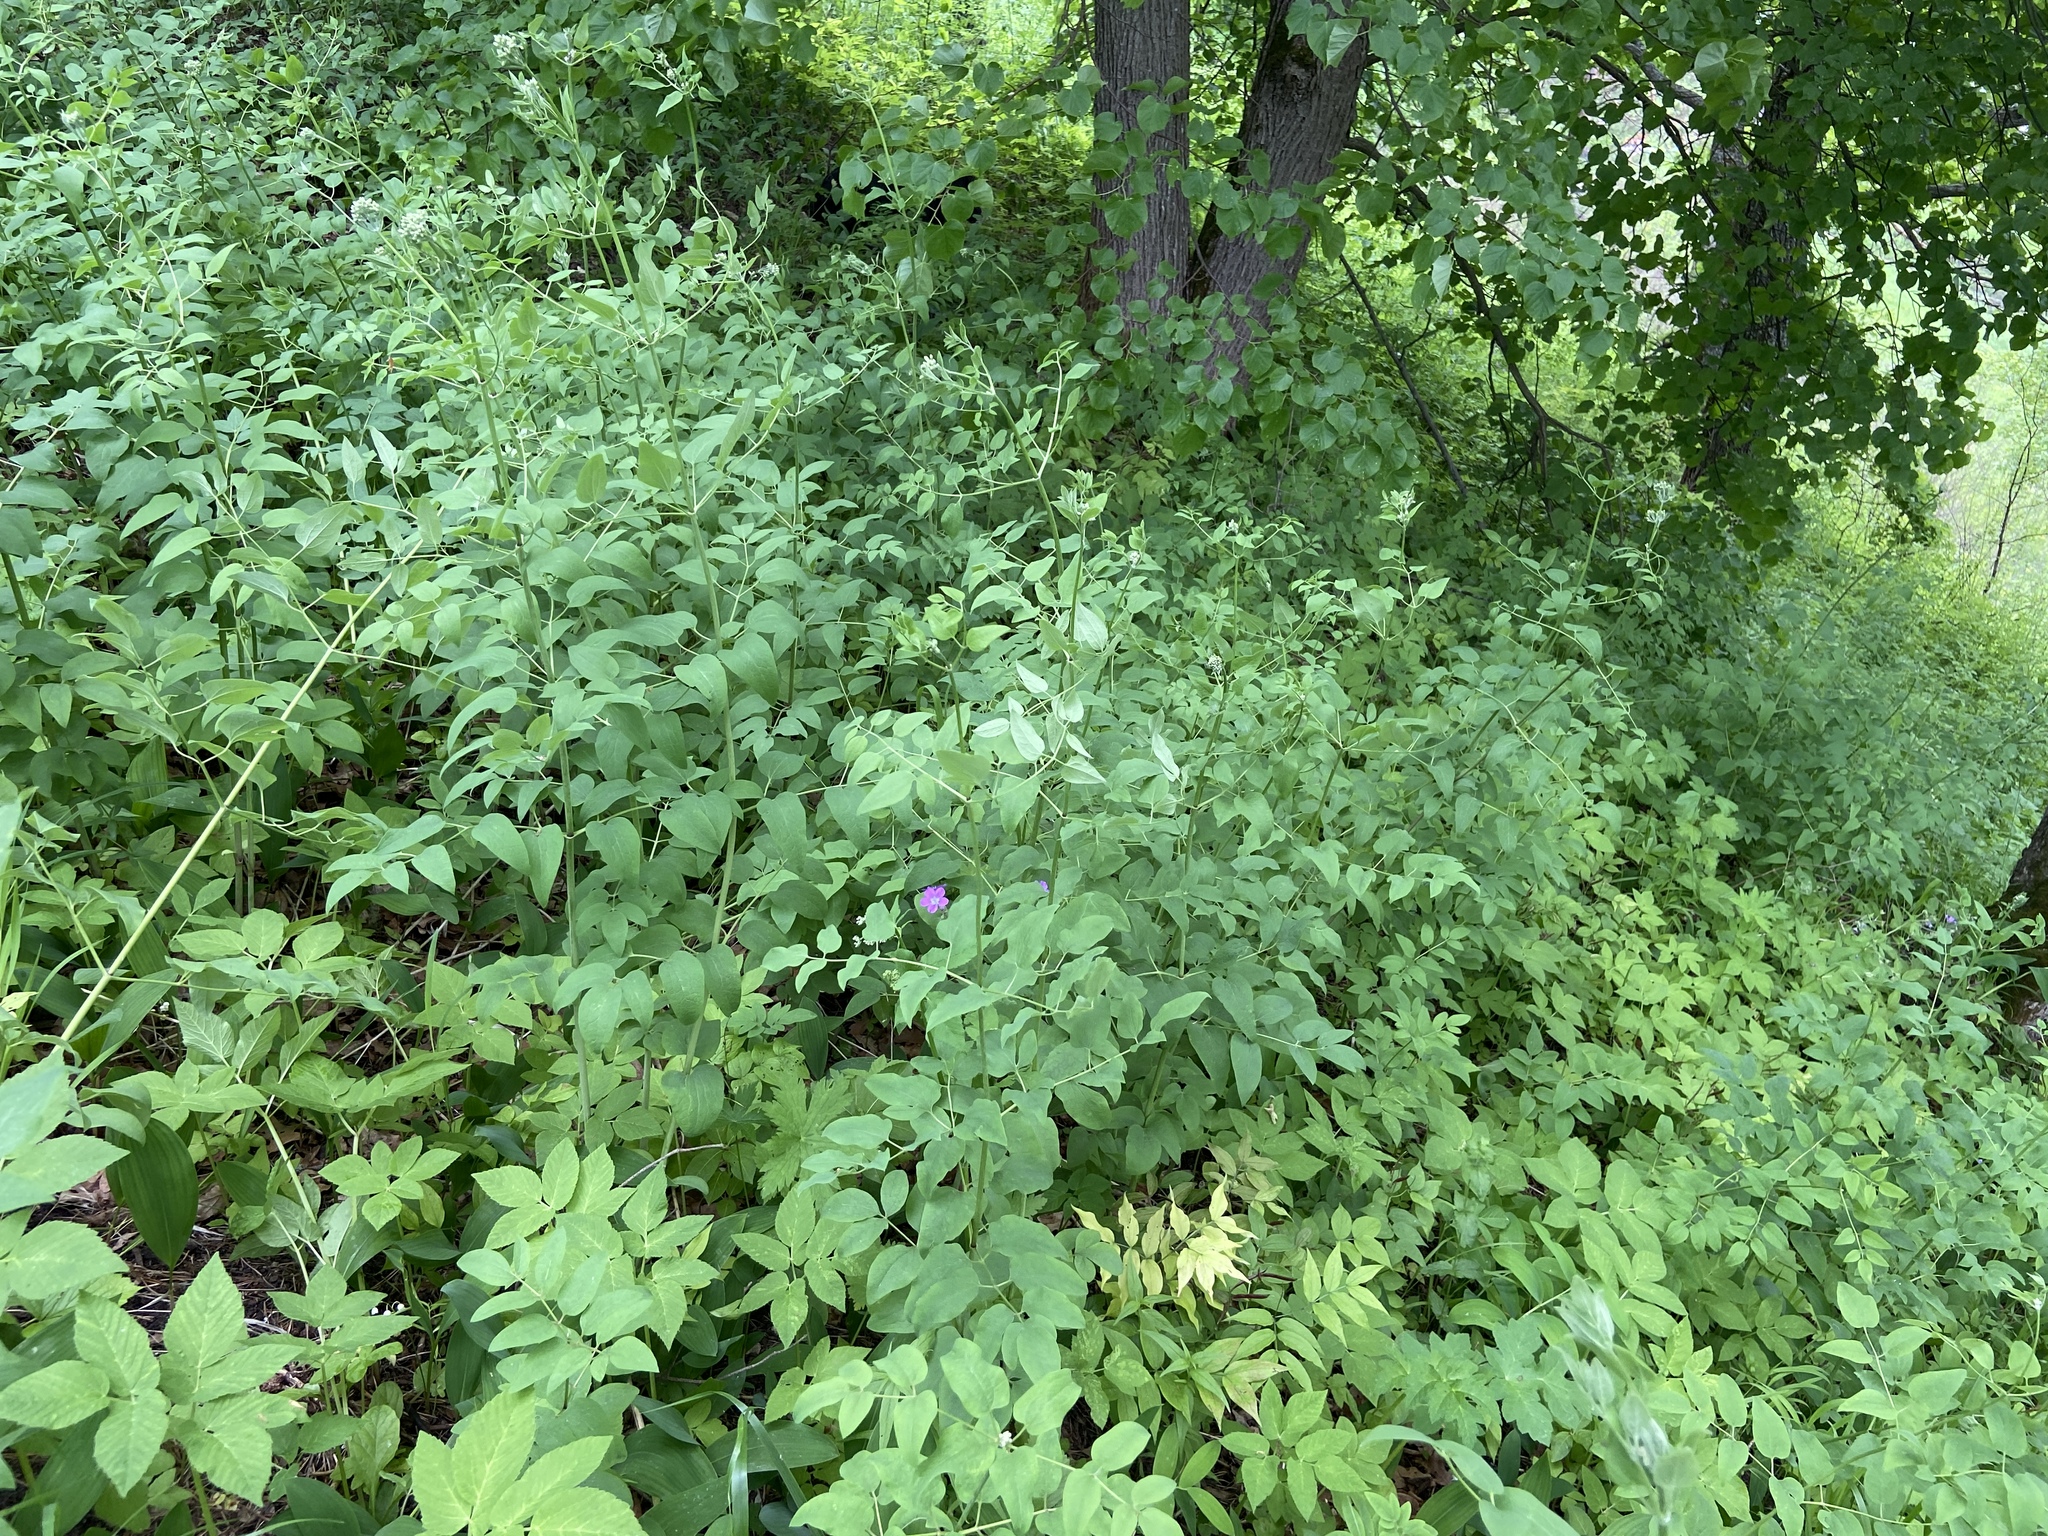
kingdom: Plantae
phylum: Tracheophyta
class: Magnoliopsida
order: Ranunculales
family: Ranunculaceae
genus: Clematis
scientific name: Clematis recta
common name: Ground clematis
